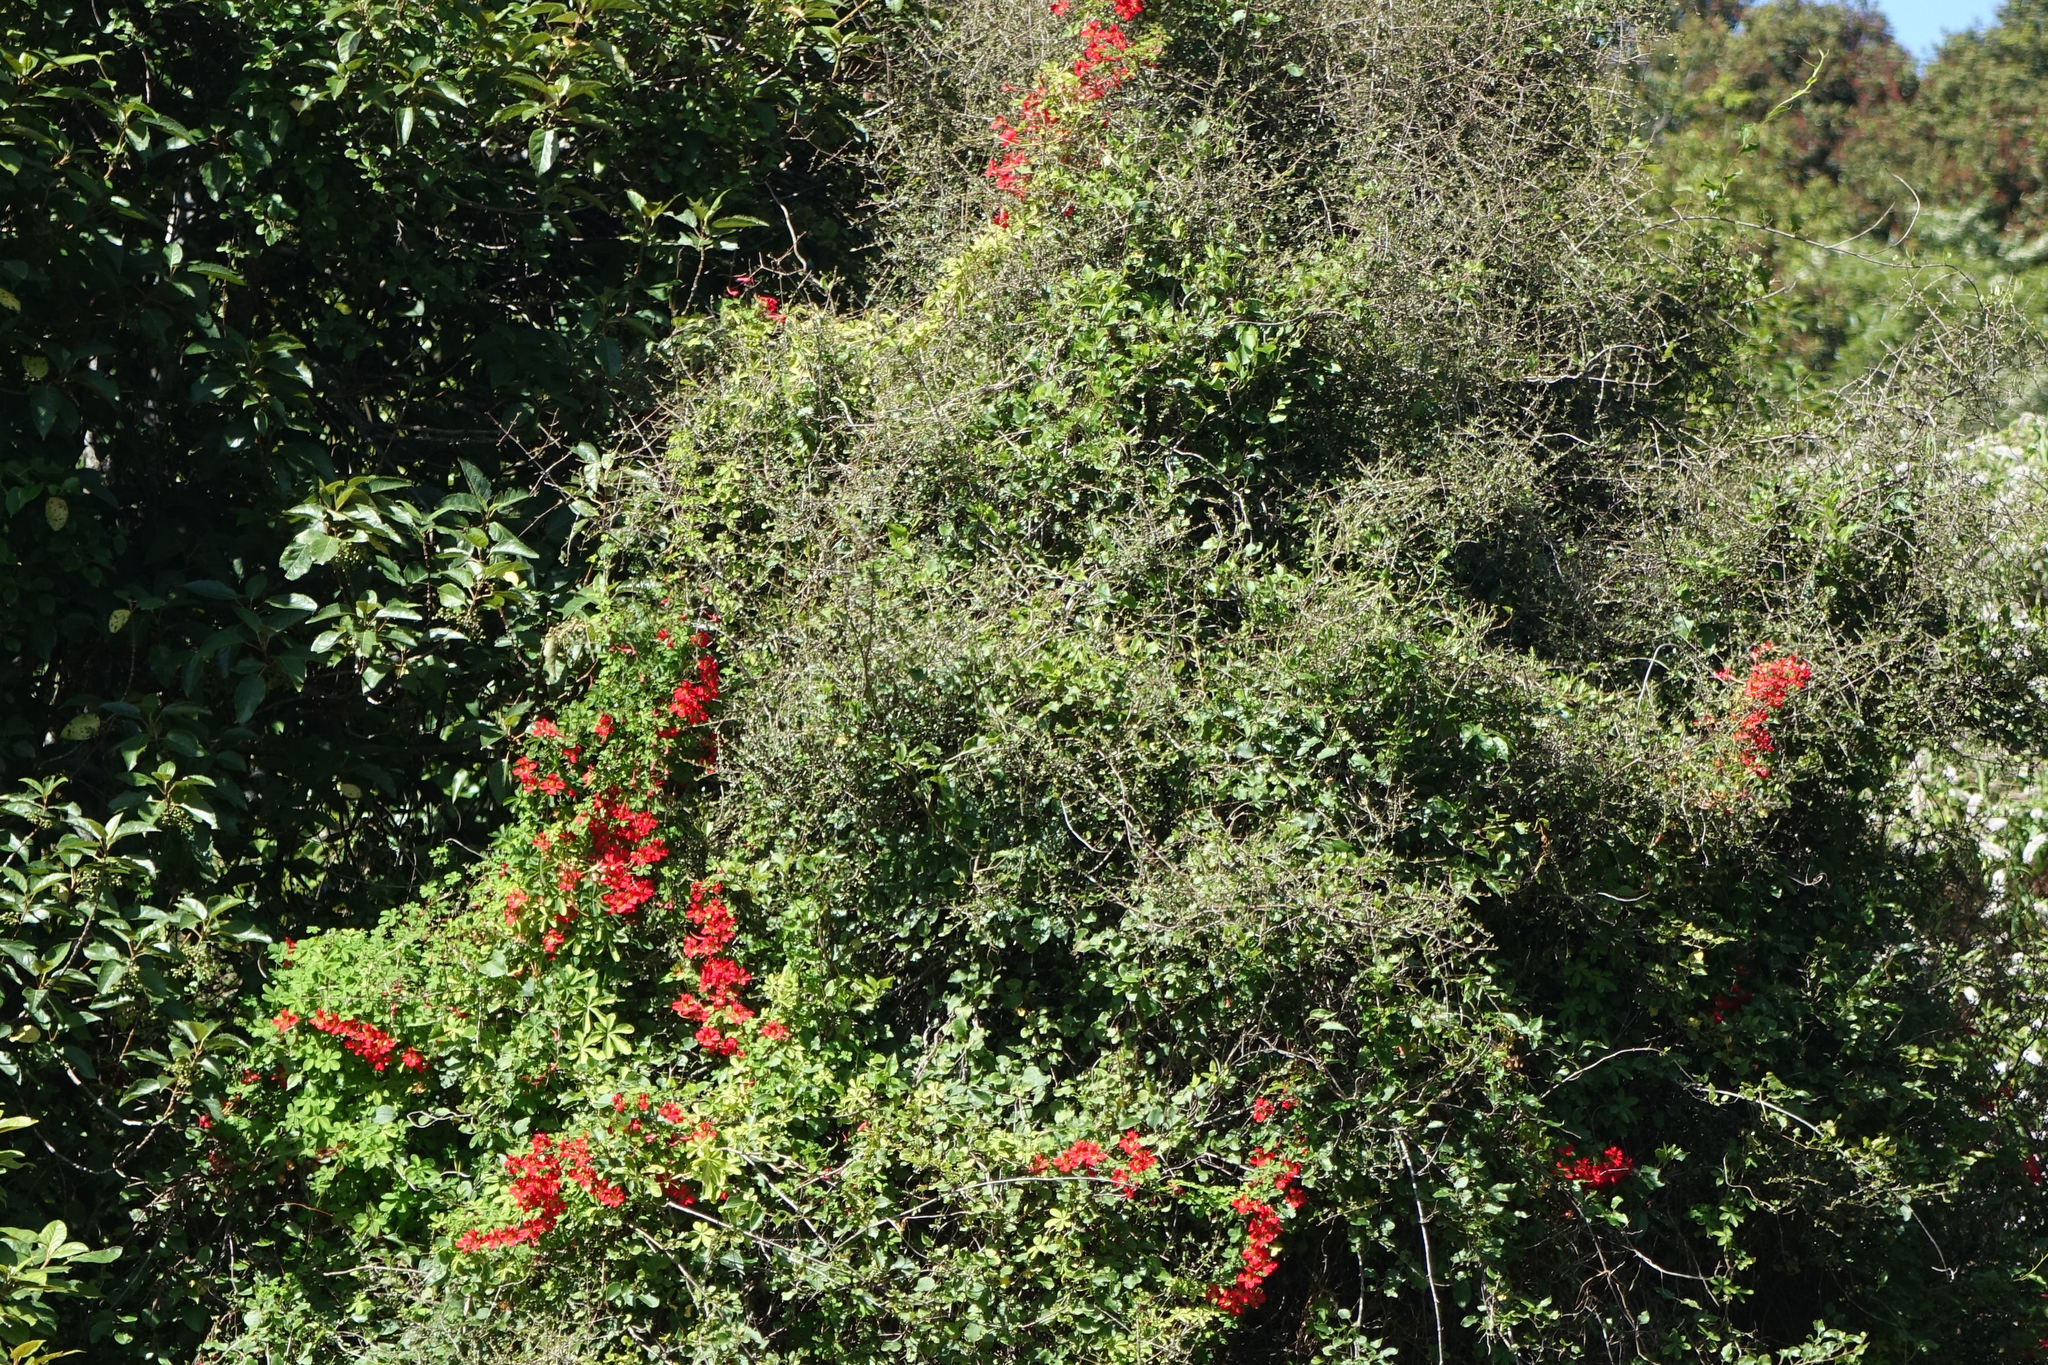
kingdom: Plantae
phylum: Tracheophyta
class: Magnoliopsida
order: Brassicales
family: Tropaeolaceae
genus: Tropaeolum
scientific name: Tropaeolum speciosum
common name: Flame nasturtium
